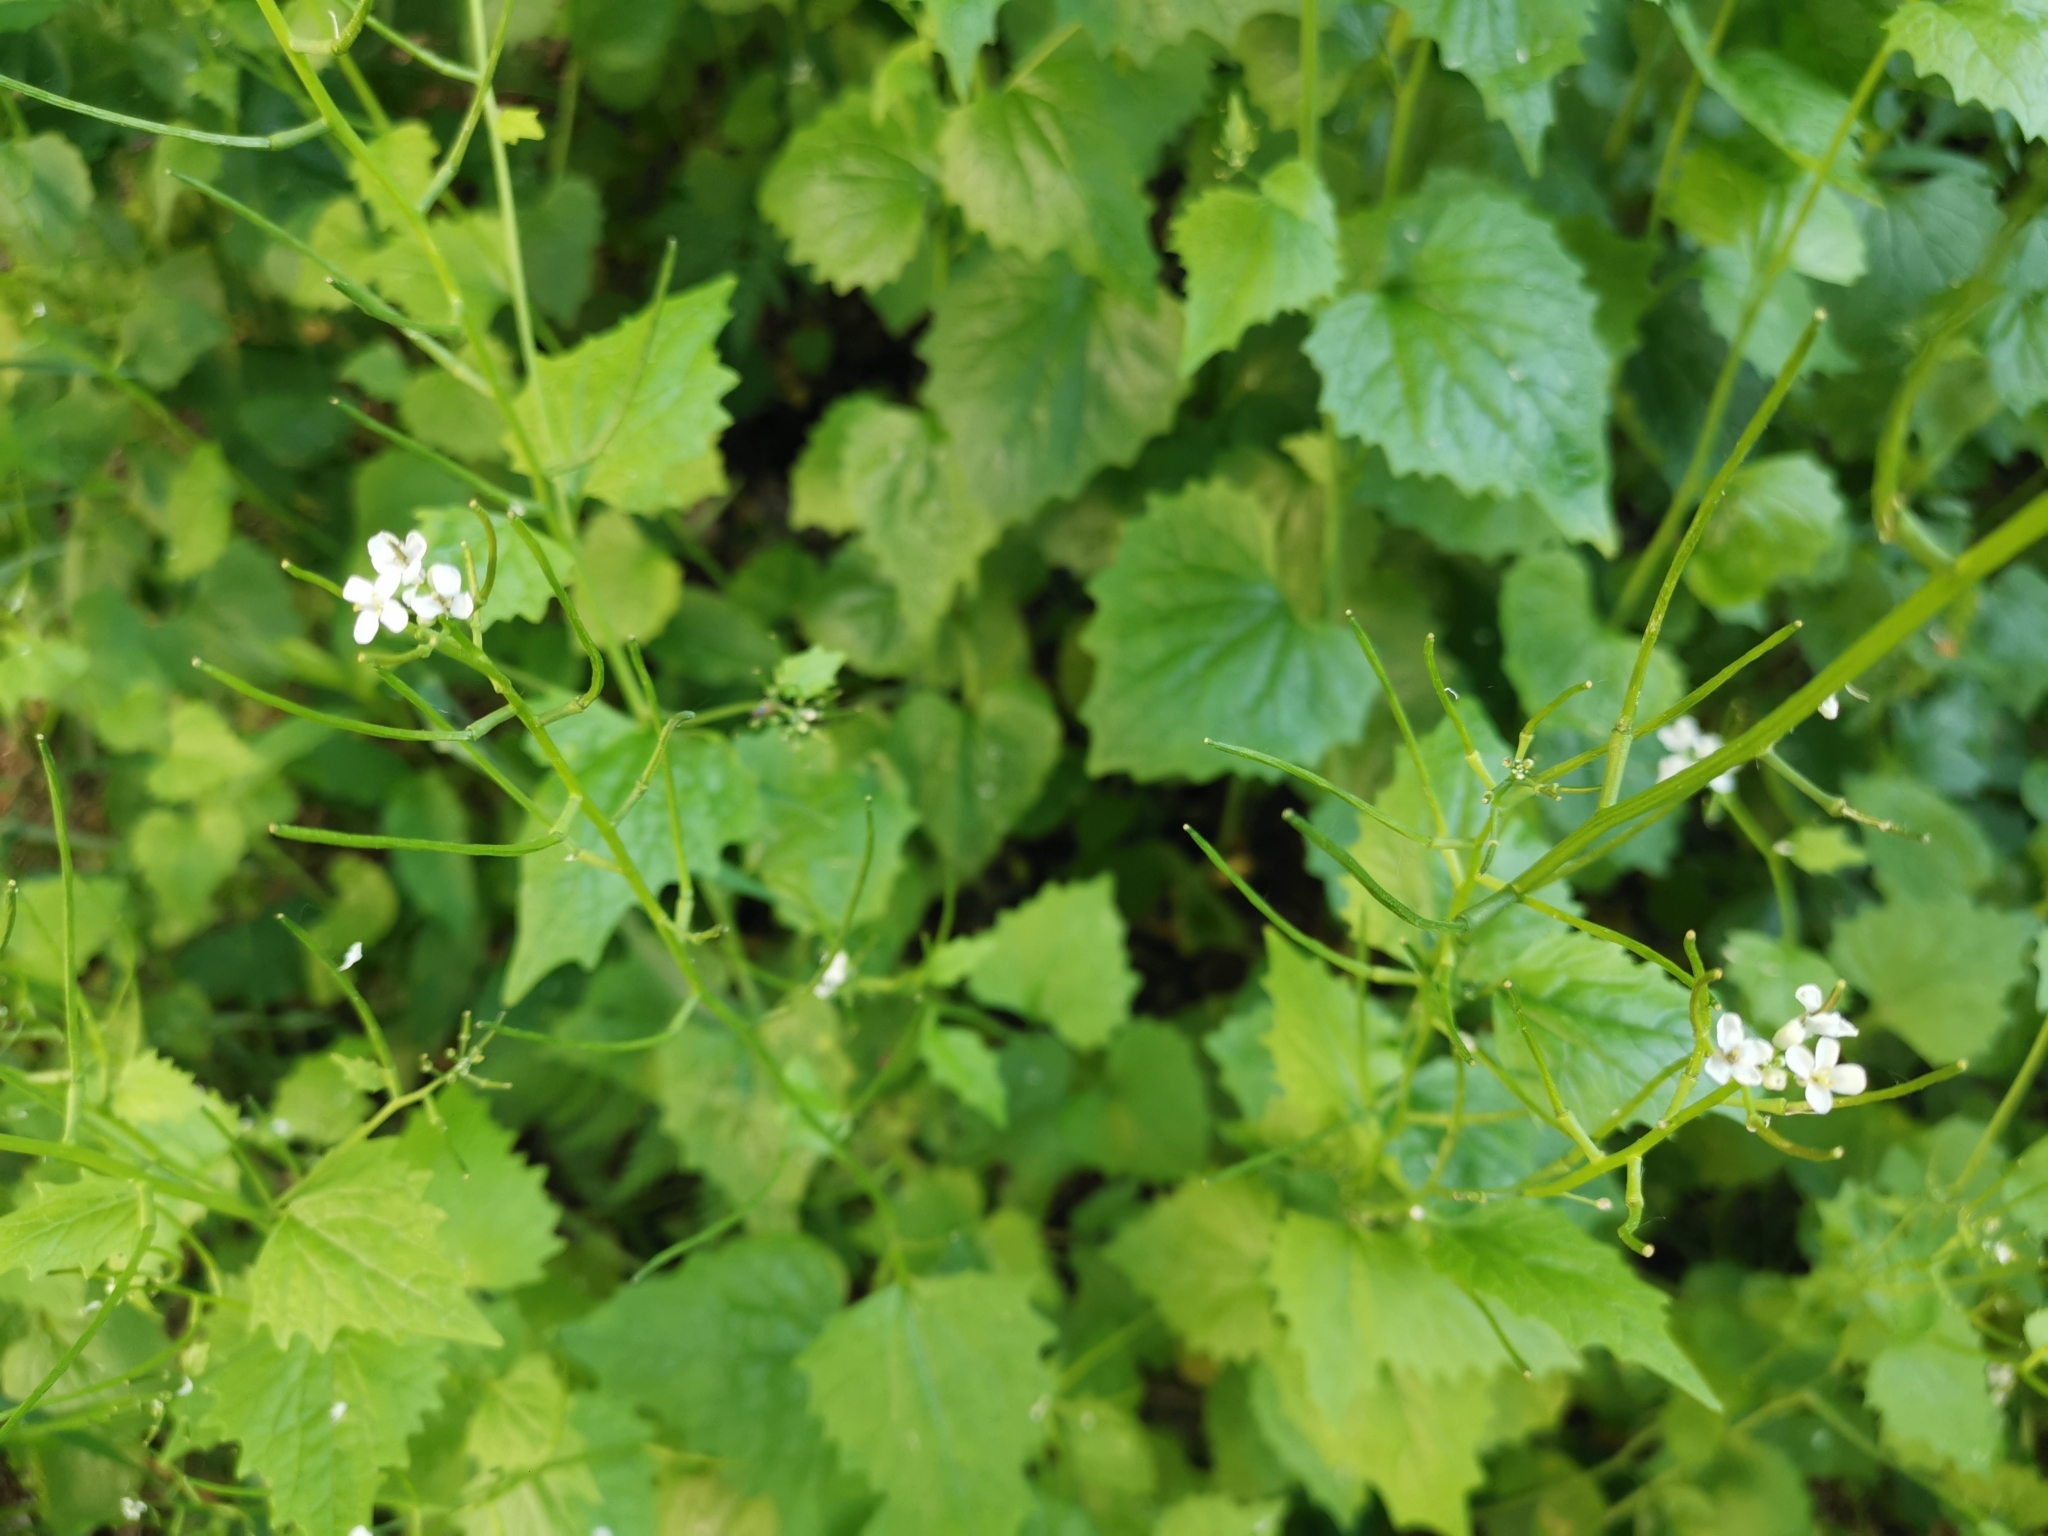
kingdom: Plantae
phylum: Tracheophyta
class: Magnoliopsida
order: Brassicales
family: Brassicaceae
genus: Alliaria
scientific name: Alliaria petiolata
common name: Garlic mustard
